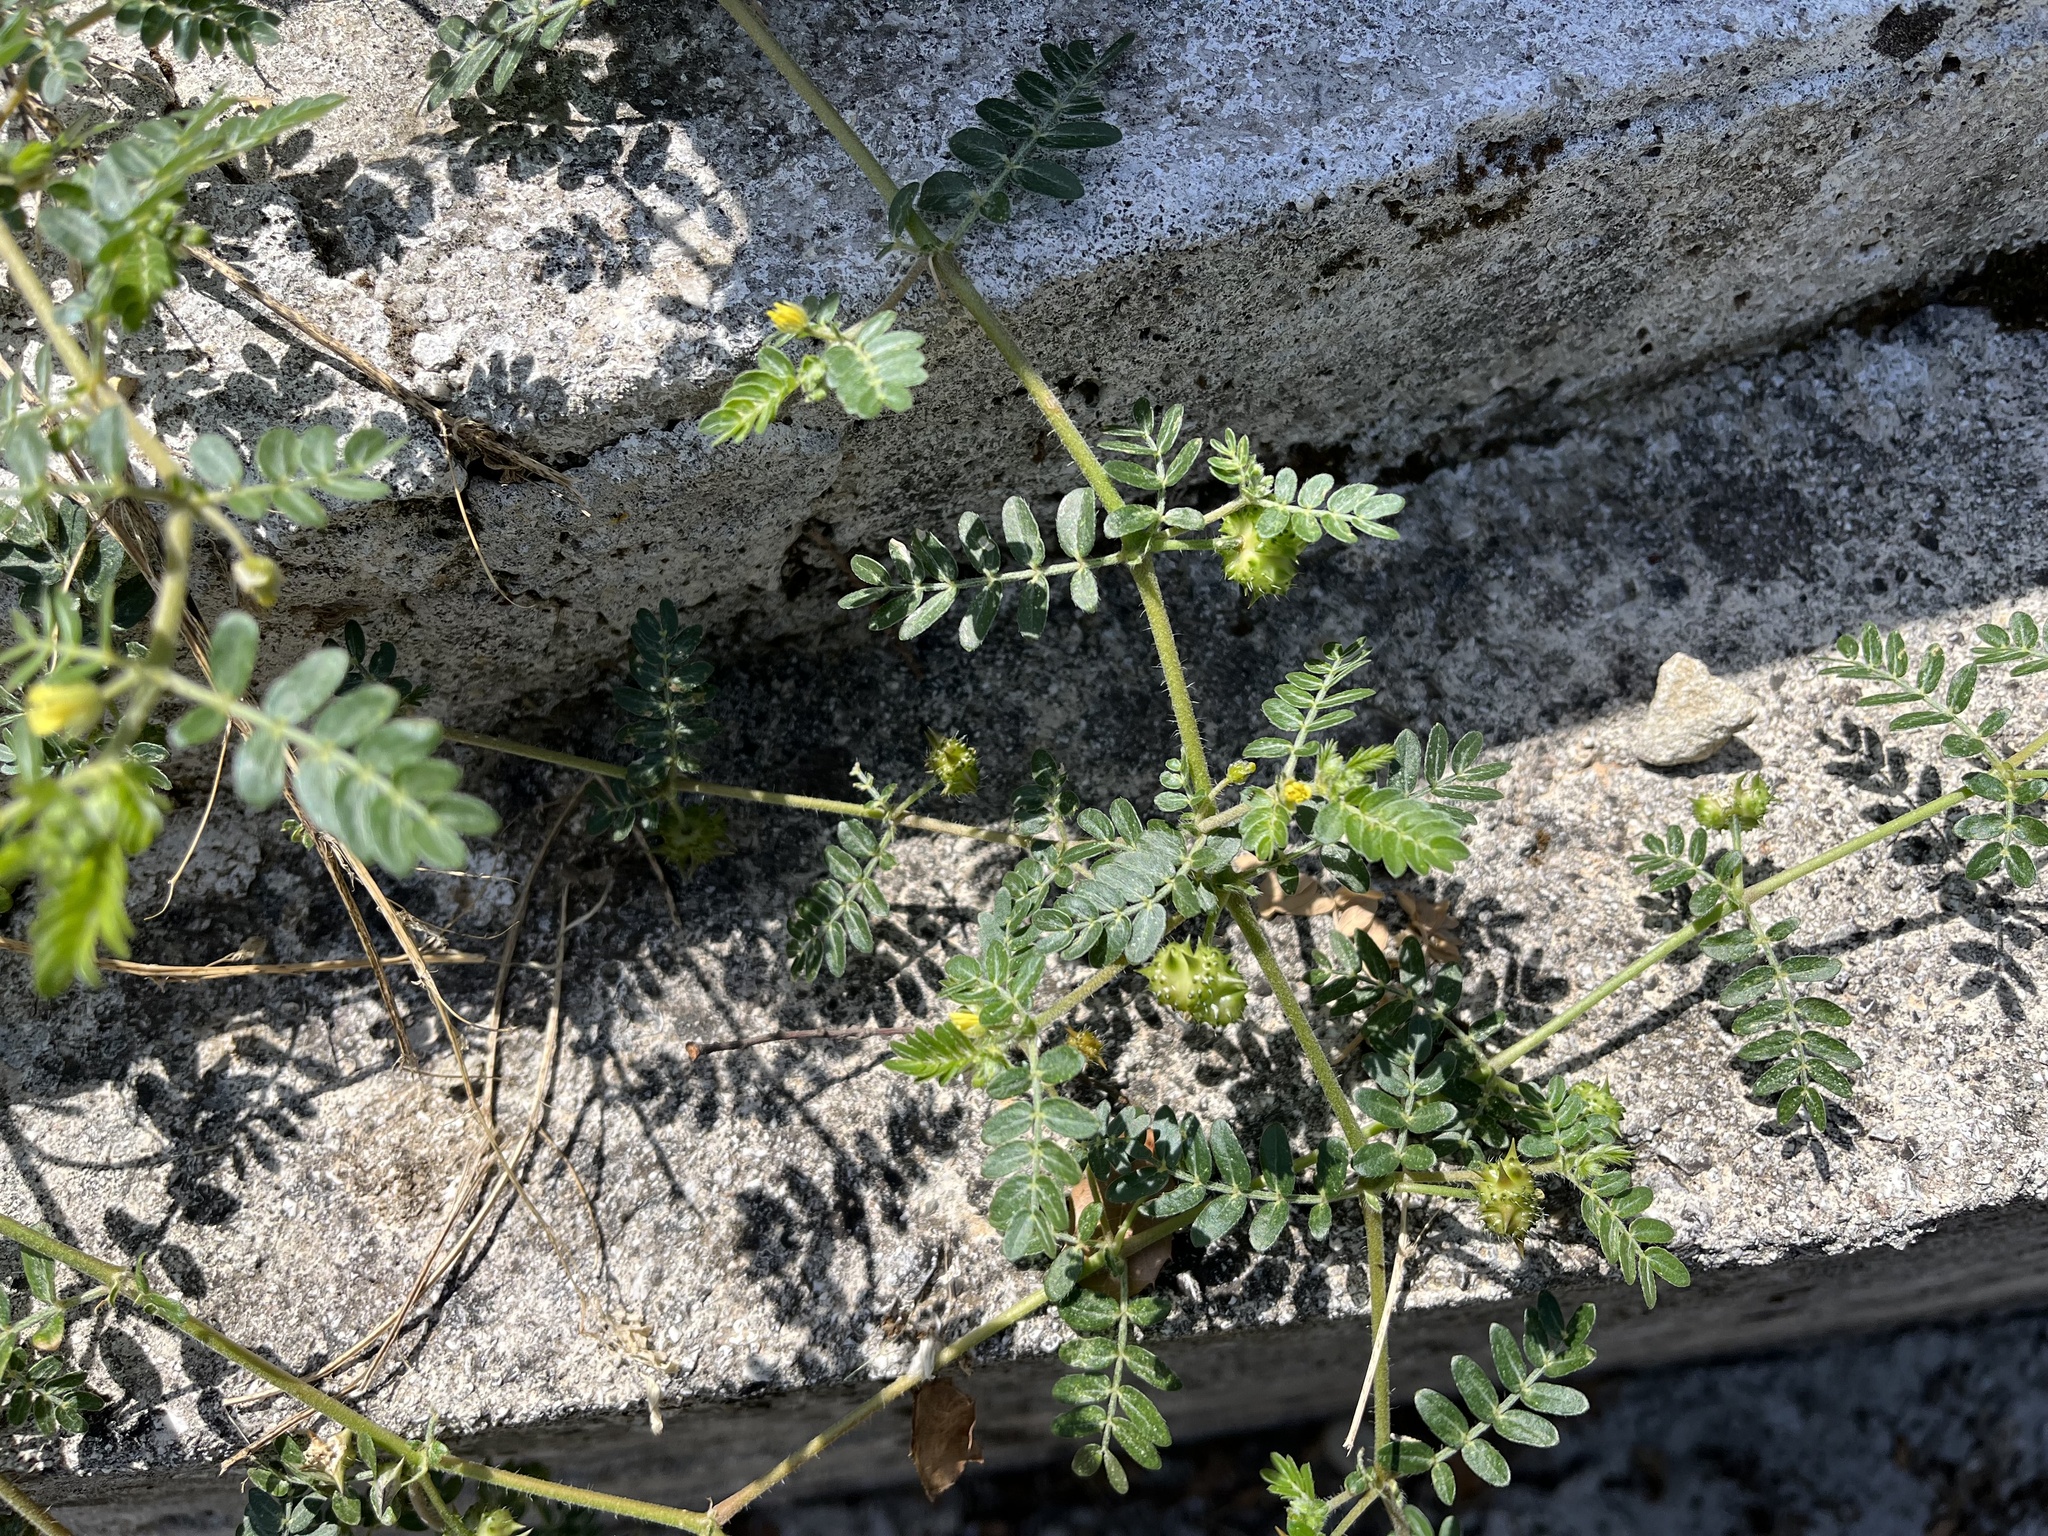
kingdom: Plantae
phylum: Tracheophyta
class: Magnoliopsida
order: Zygophyllales
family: Zygophyllaceae
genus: Tribulus
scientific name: Tribulus terrestris
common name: Puncturevine
